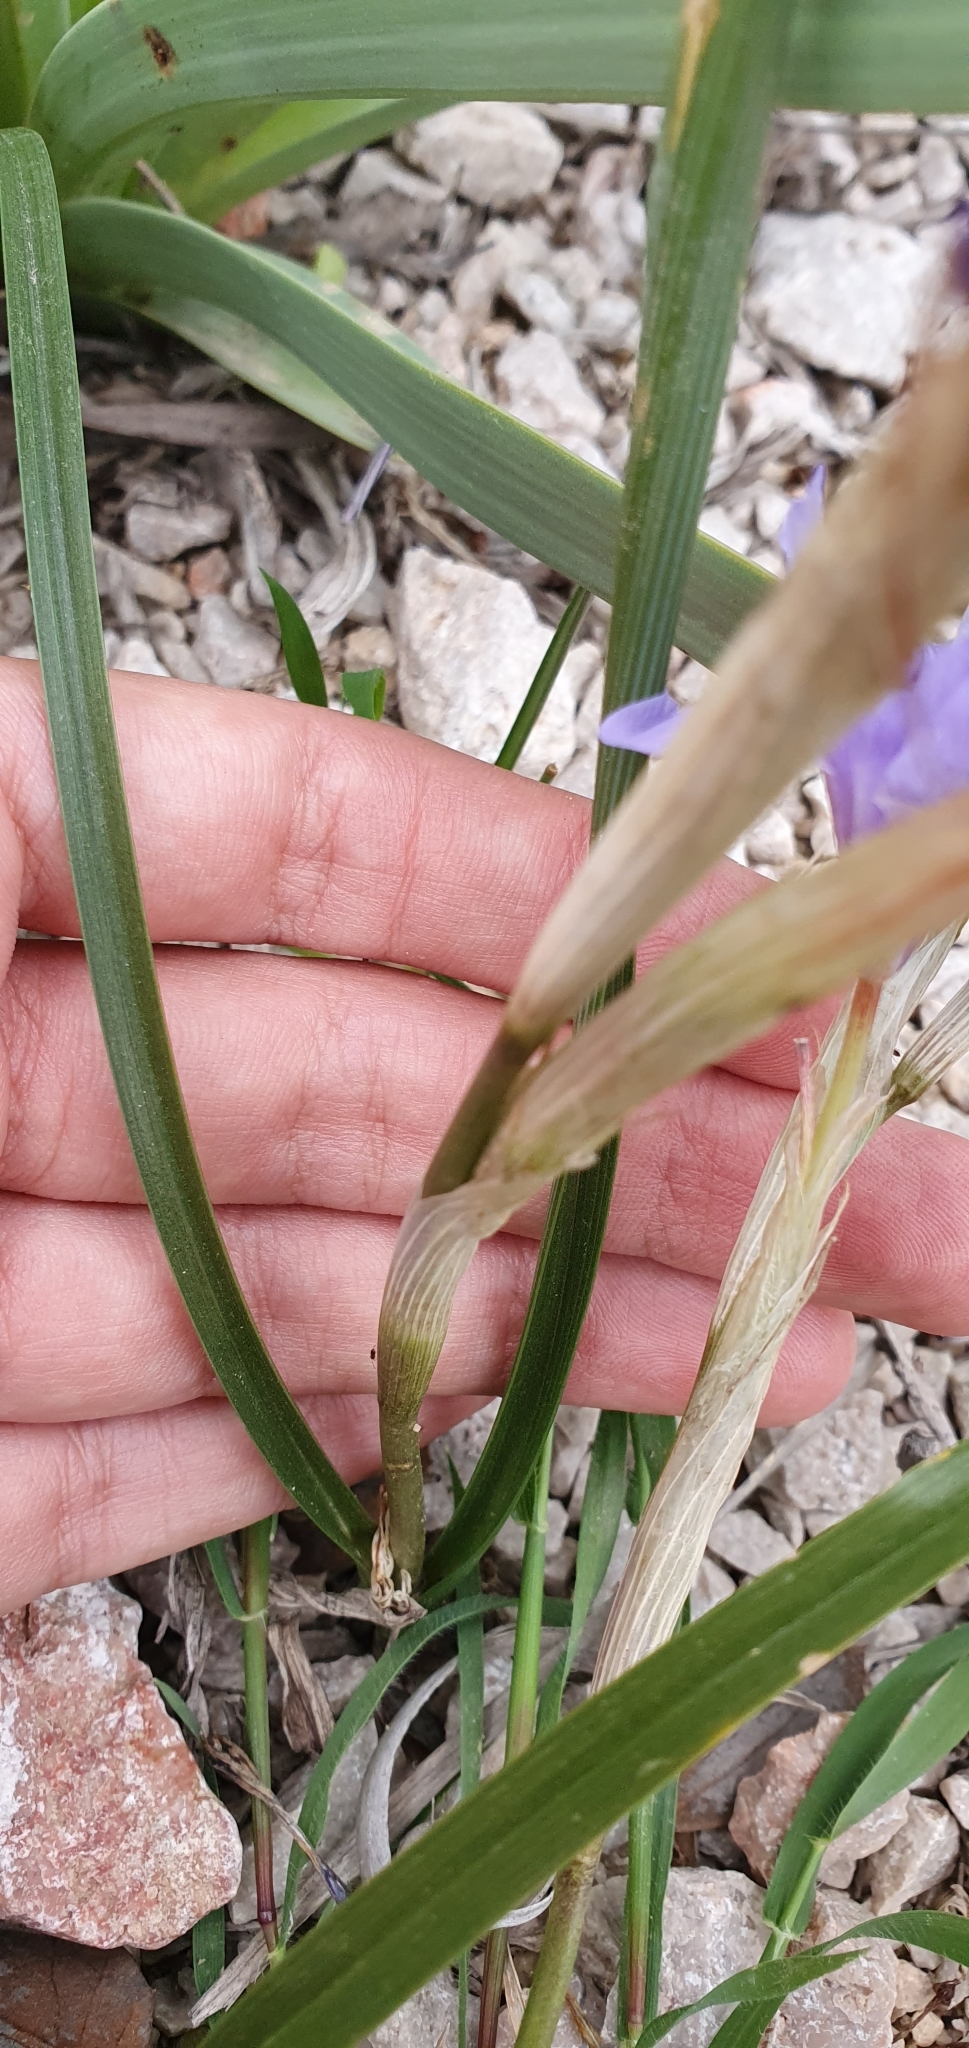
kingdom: Plantae
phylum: Tracheophyta
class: Liliopsida
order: Asparagales
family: Iridaceae
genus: Moraea
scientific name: Moraea sisyrinchium
